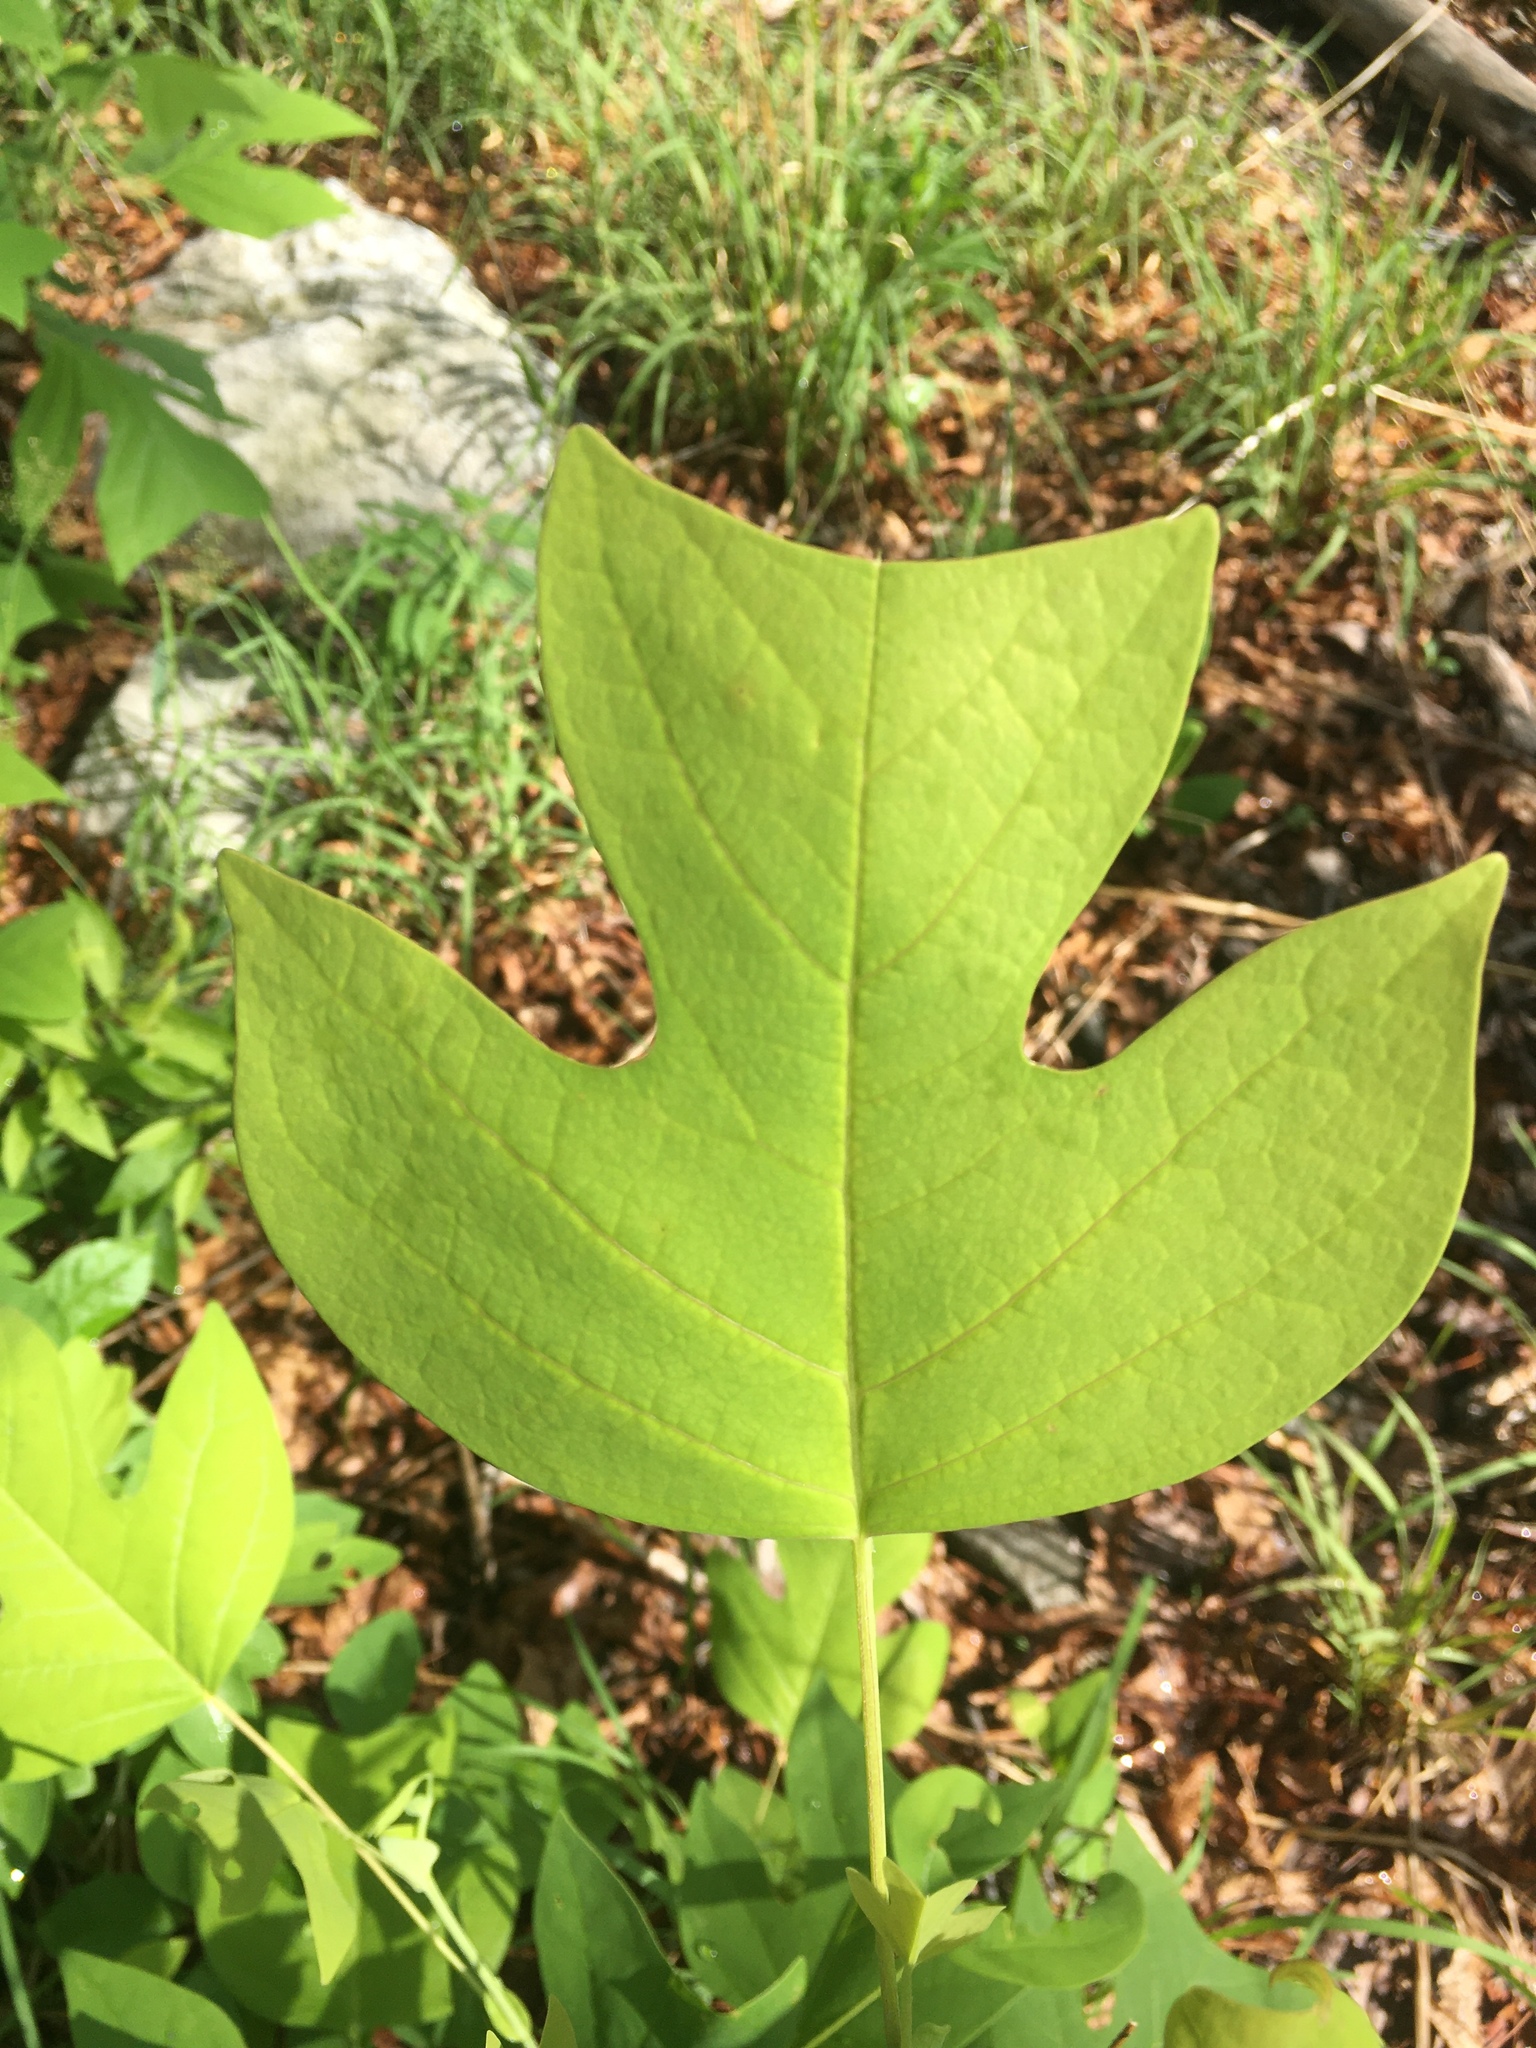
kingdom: Plantae
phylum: Tracheophyta
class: Magnoliopsida
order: Magnoliales
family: Magnoliaceae
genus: Liriodendron
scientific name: Liriodendron tulipifera
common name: Tulip tree
